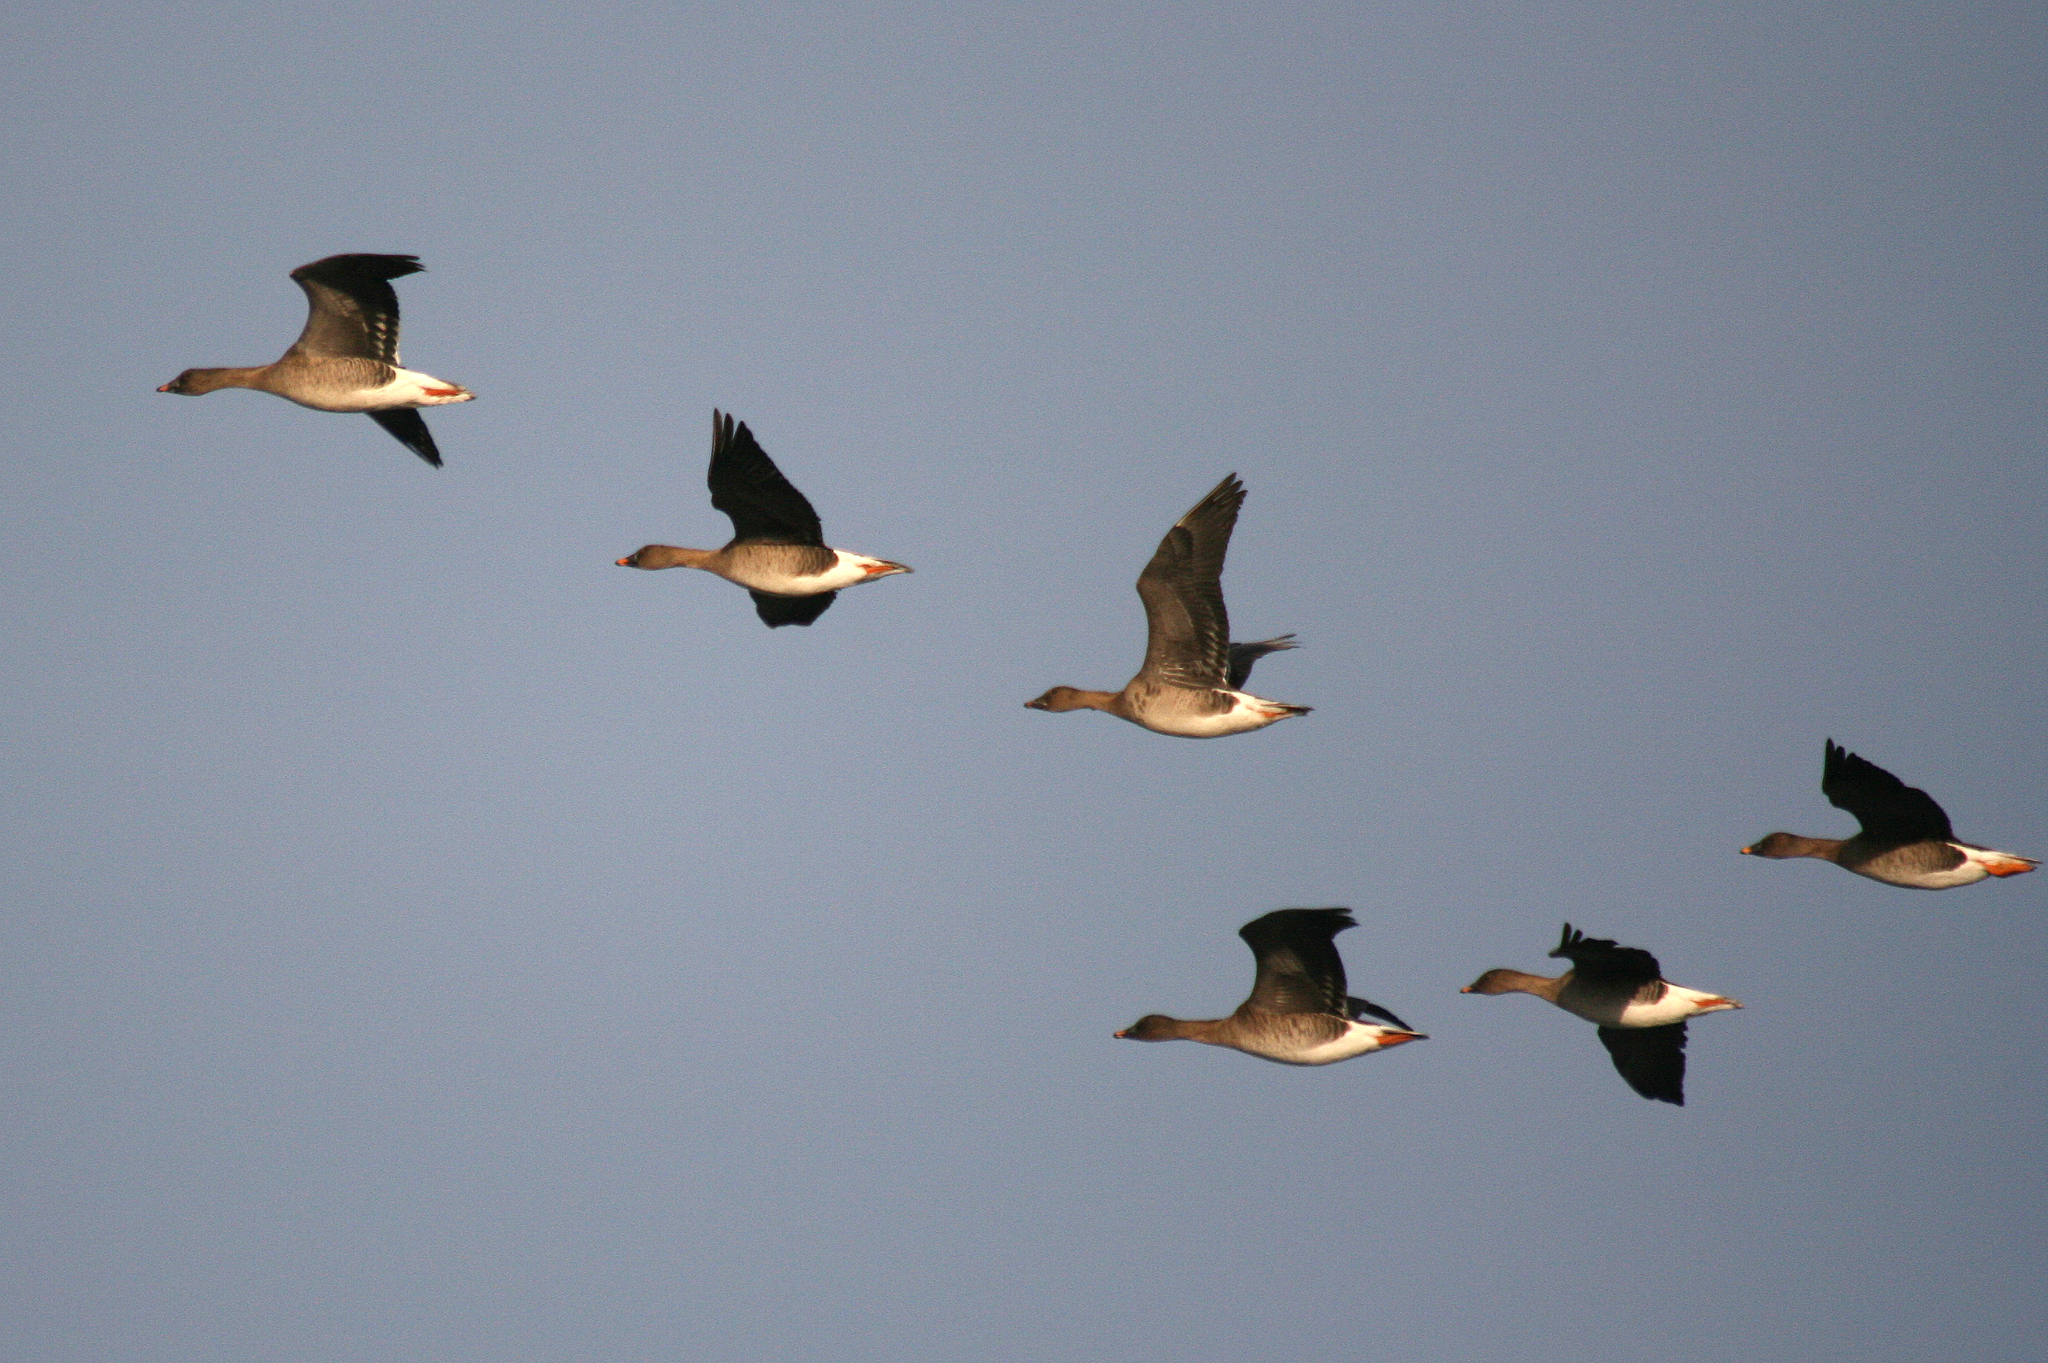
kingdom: Animalia
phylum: Chordata
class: Aves
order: Anseriformes
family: Anatidae
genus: Anser
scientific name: Anser serrirostris
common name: Tundra bean goose
